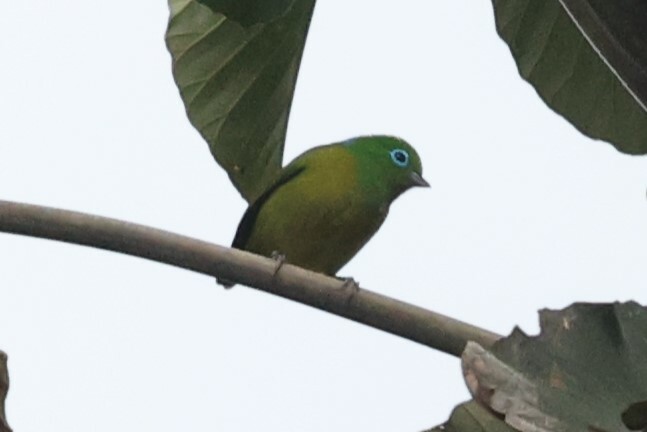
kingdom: Animalia
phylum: Chordata
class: Aves
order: Passeriformes
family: Fringillidae
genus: Chlorophonia
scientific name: Chlorophonia cyanea
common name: Blue-naped chlorophonia
